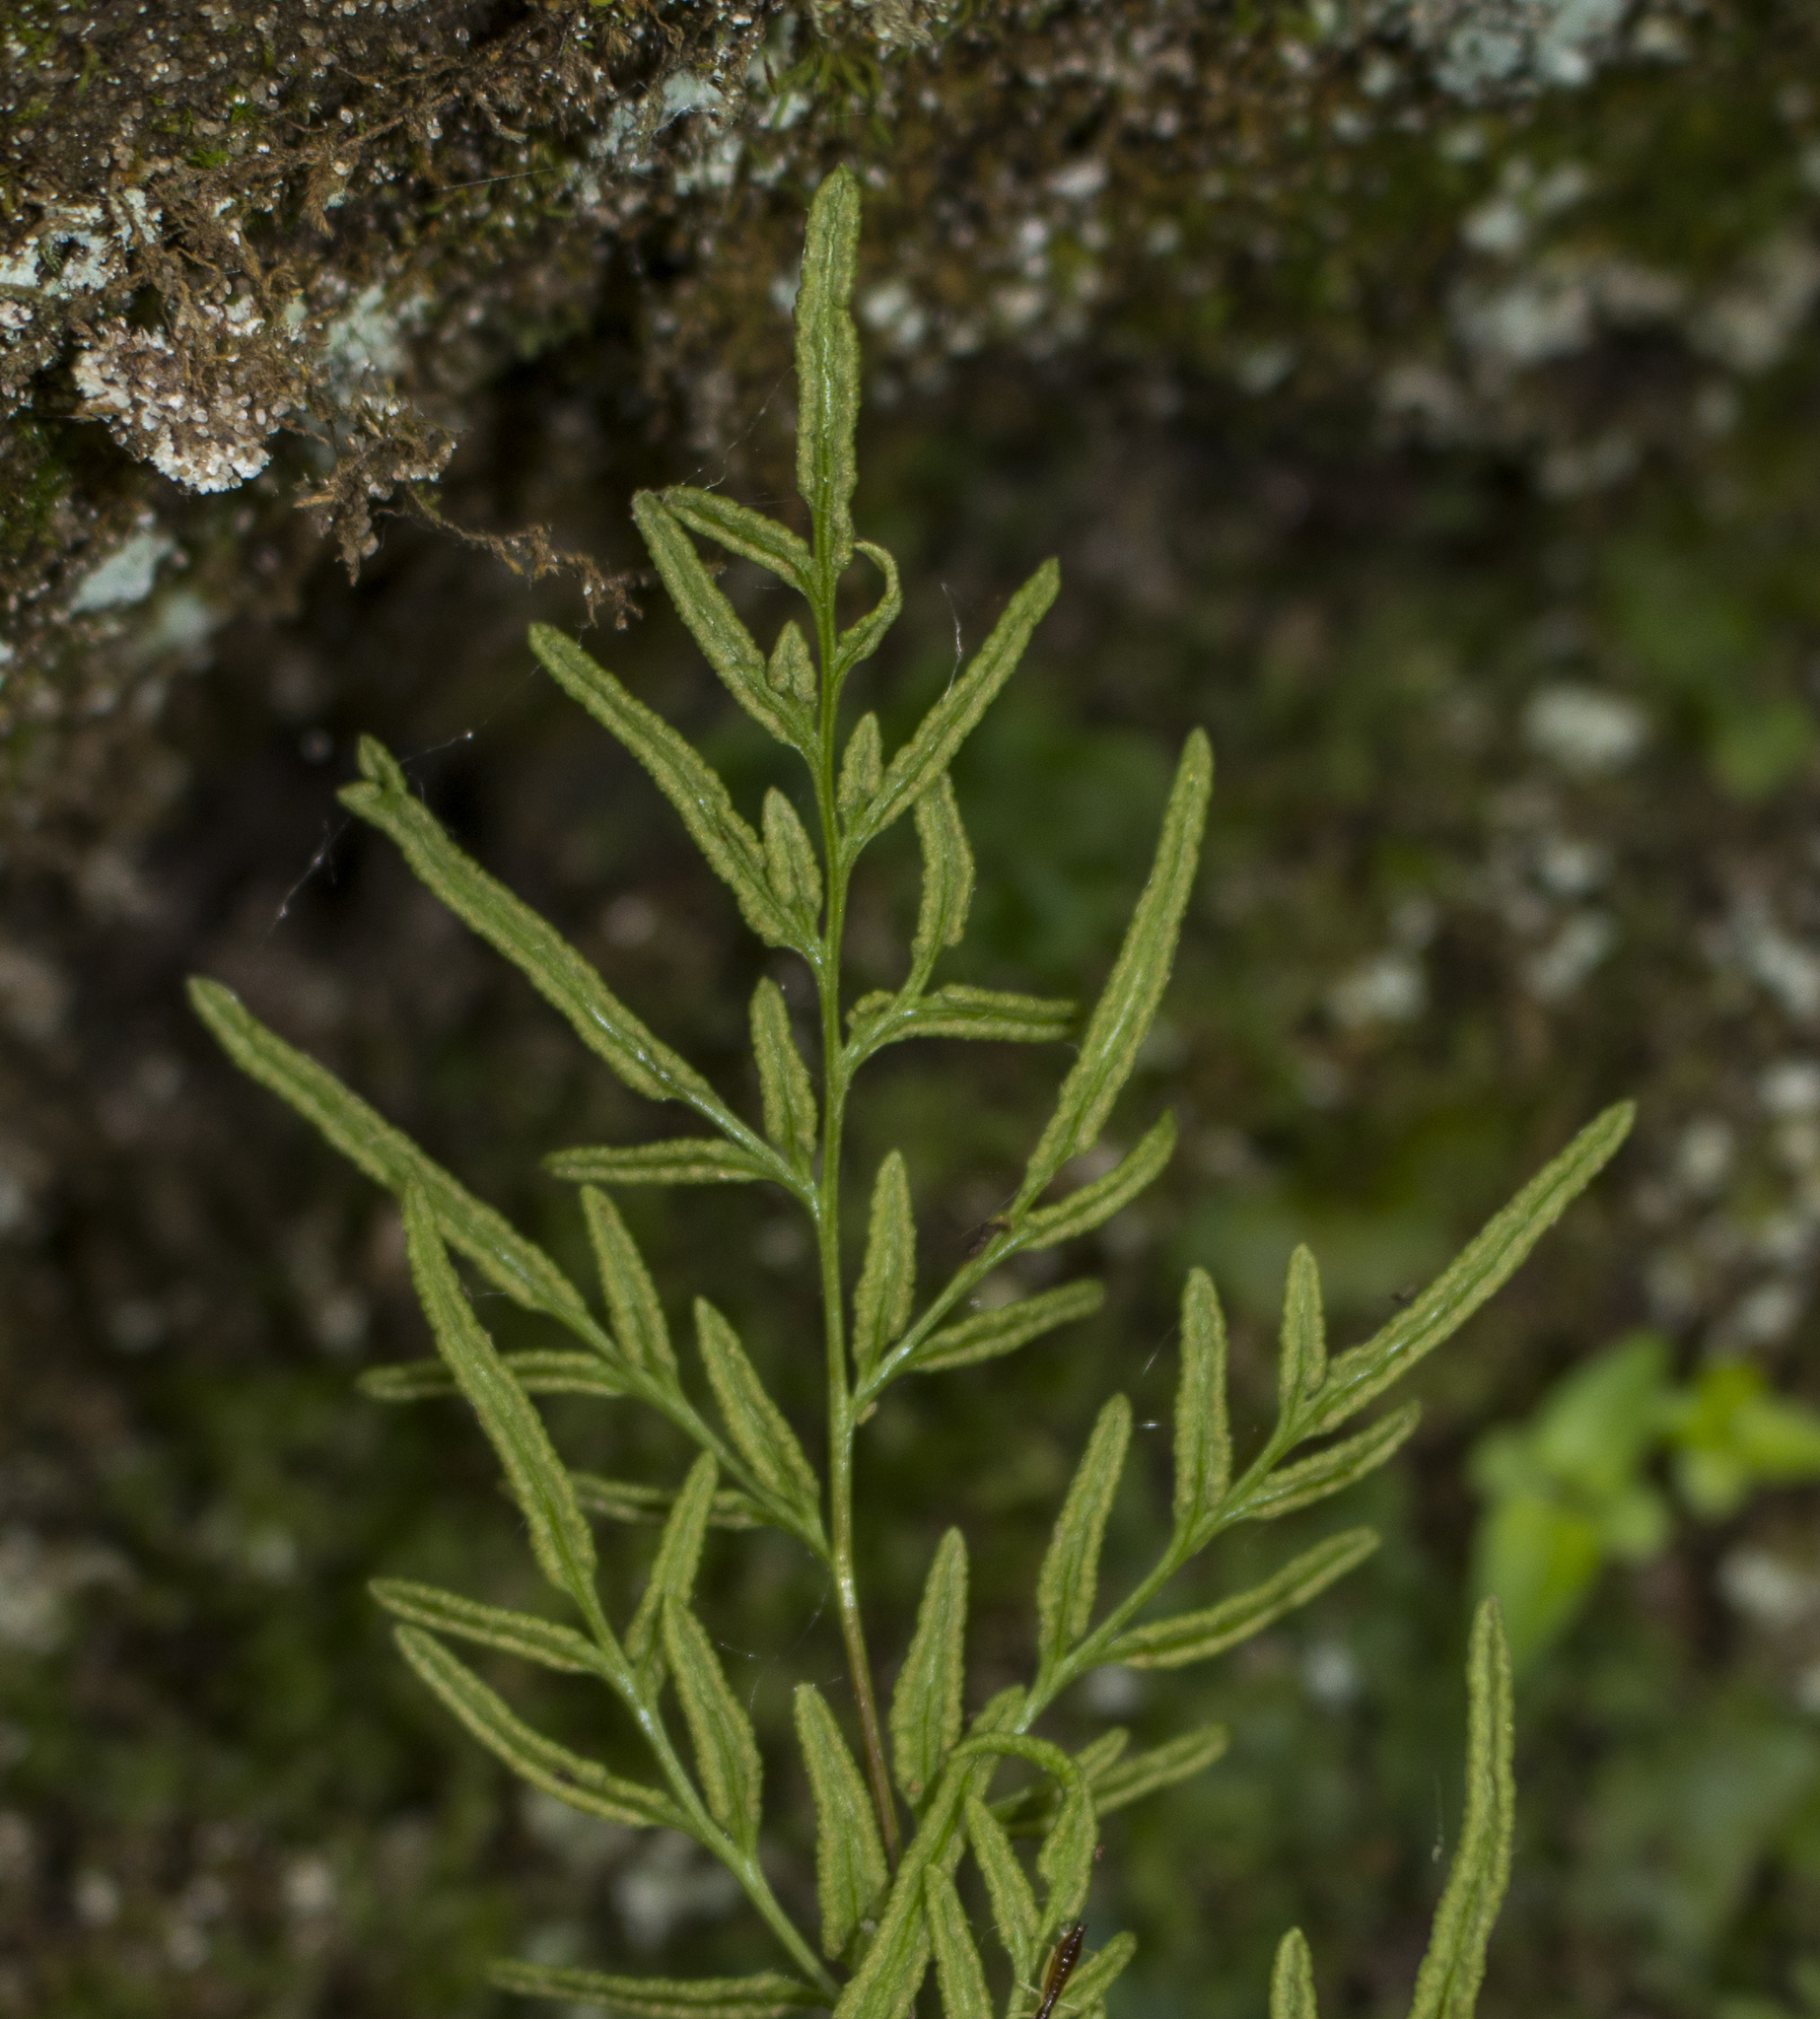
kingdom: Plantae
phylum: Tracheophyta
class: Polypodiopsida
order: Polypodiales
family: Pteridaceae
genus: Cryptogramma
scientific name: Cryptogramma stelleri
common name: Cliff-brake
